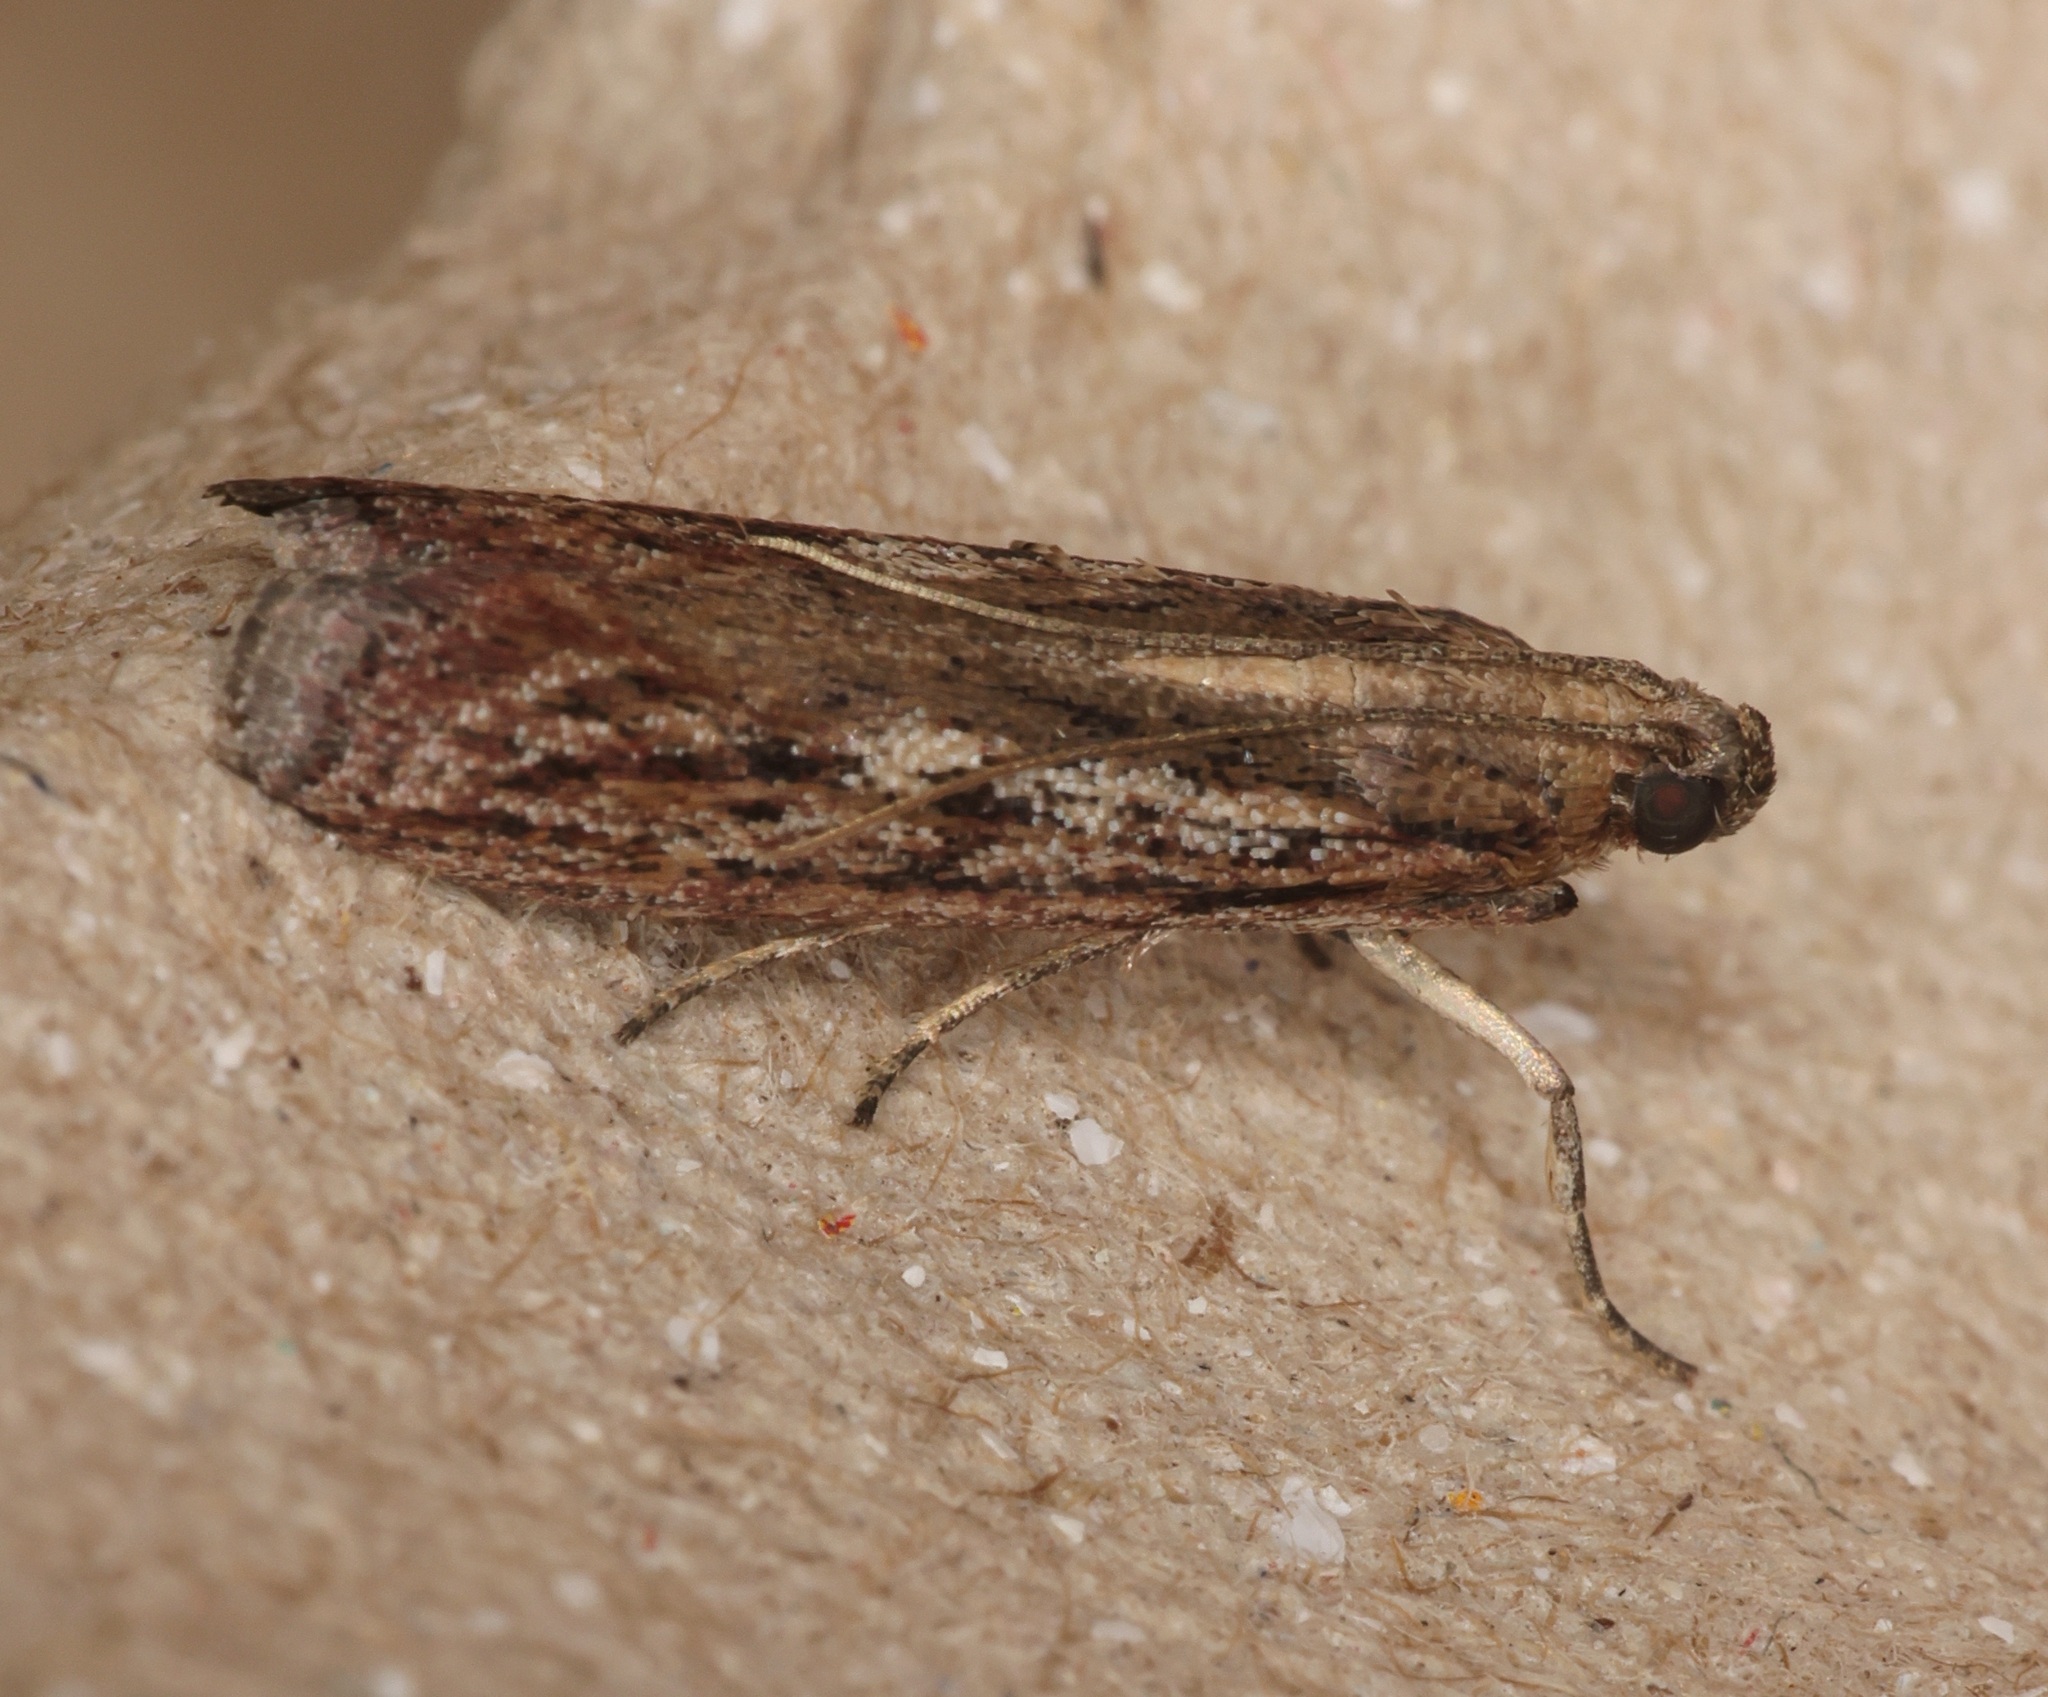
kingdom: Animalia
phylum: Arthropoda
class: Insecta
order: Lepidoptera
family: Pyralidae
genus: Zonula
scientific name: Zonula
